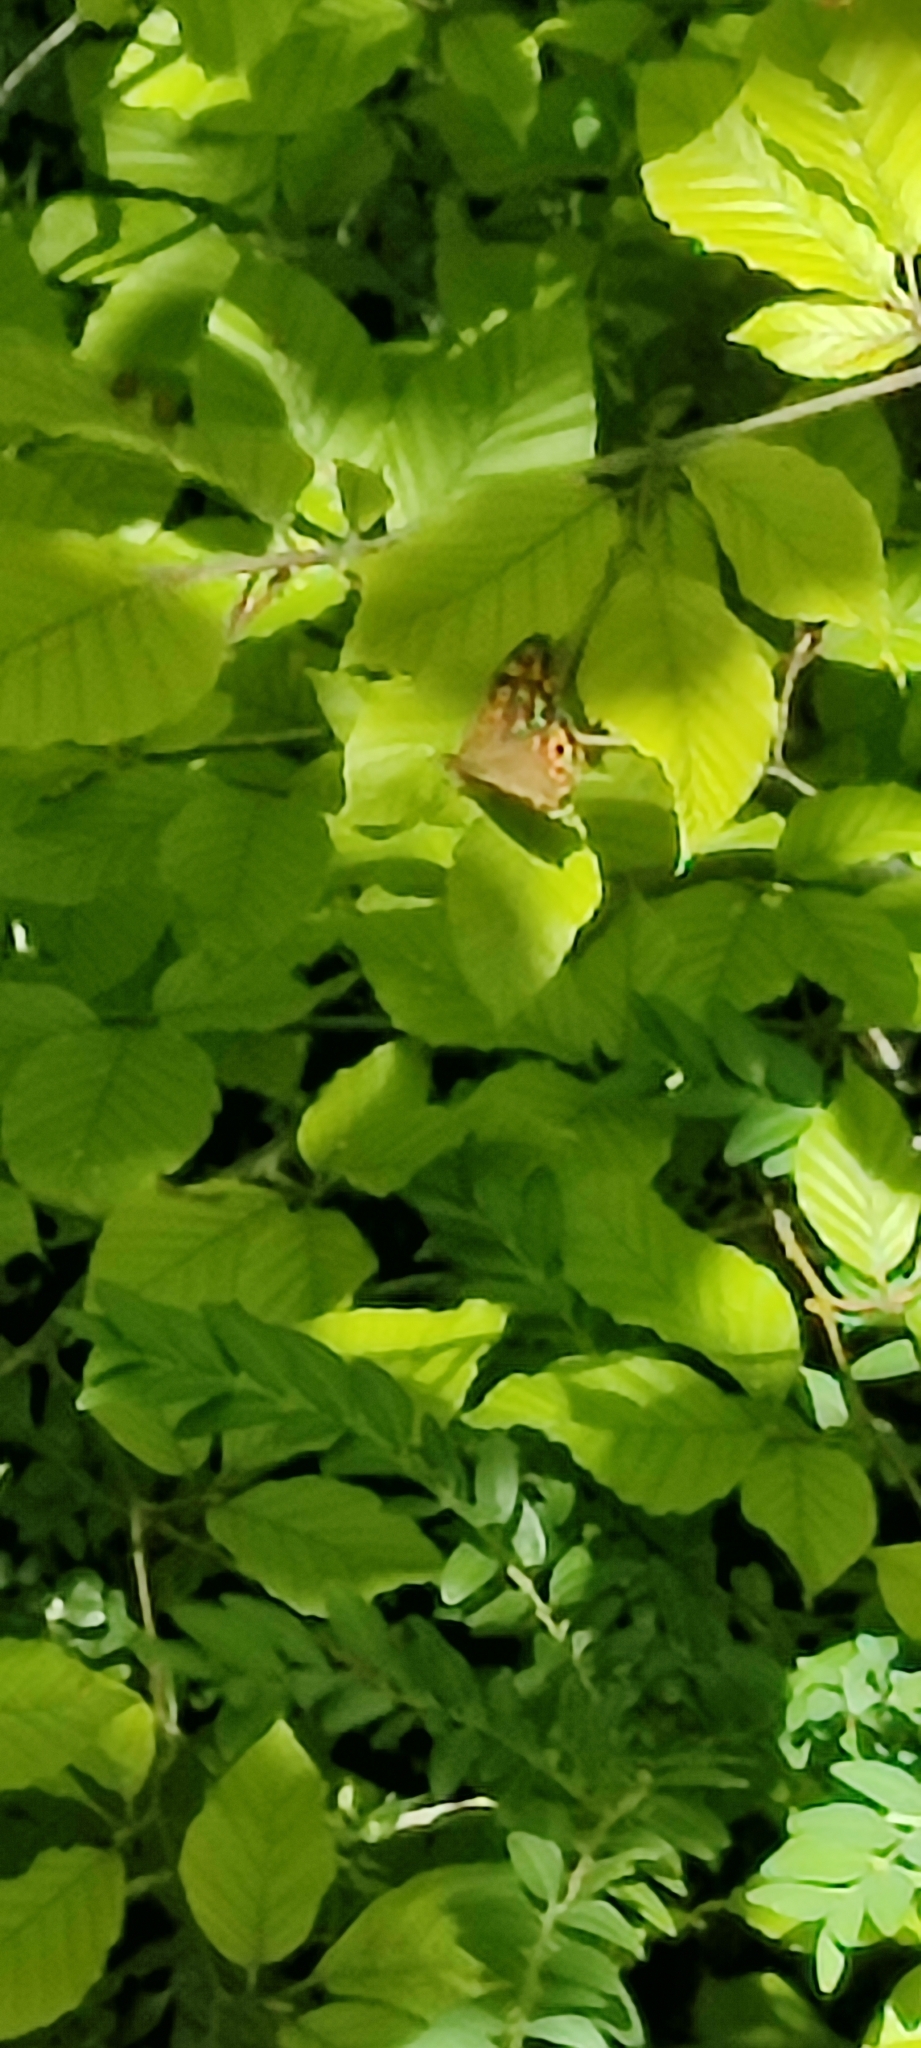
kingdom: Animalia
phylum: Arthropoda
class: Insecta
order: Lepidoptera
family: Nymphalidae
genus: Pararge
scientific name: Pararge aegeria
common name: Speckled wood
